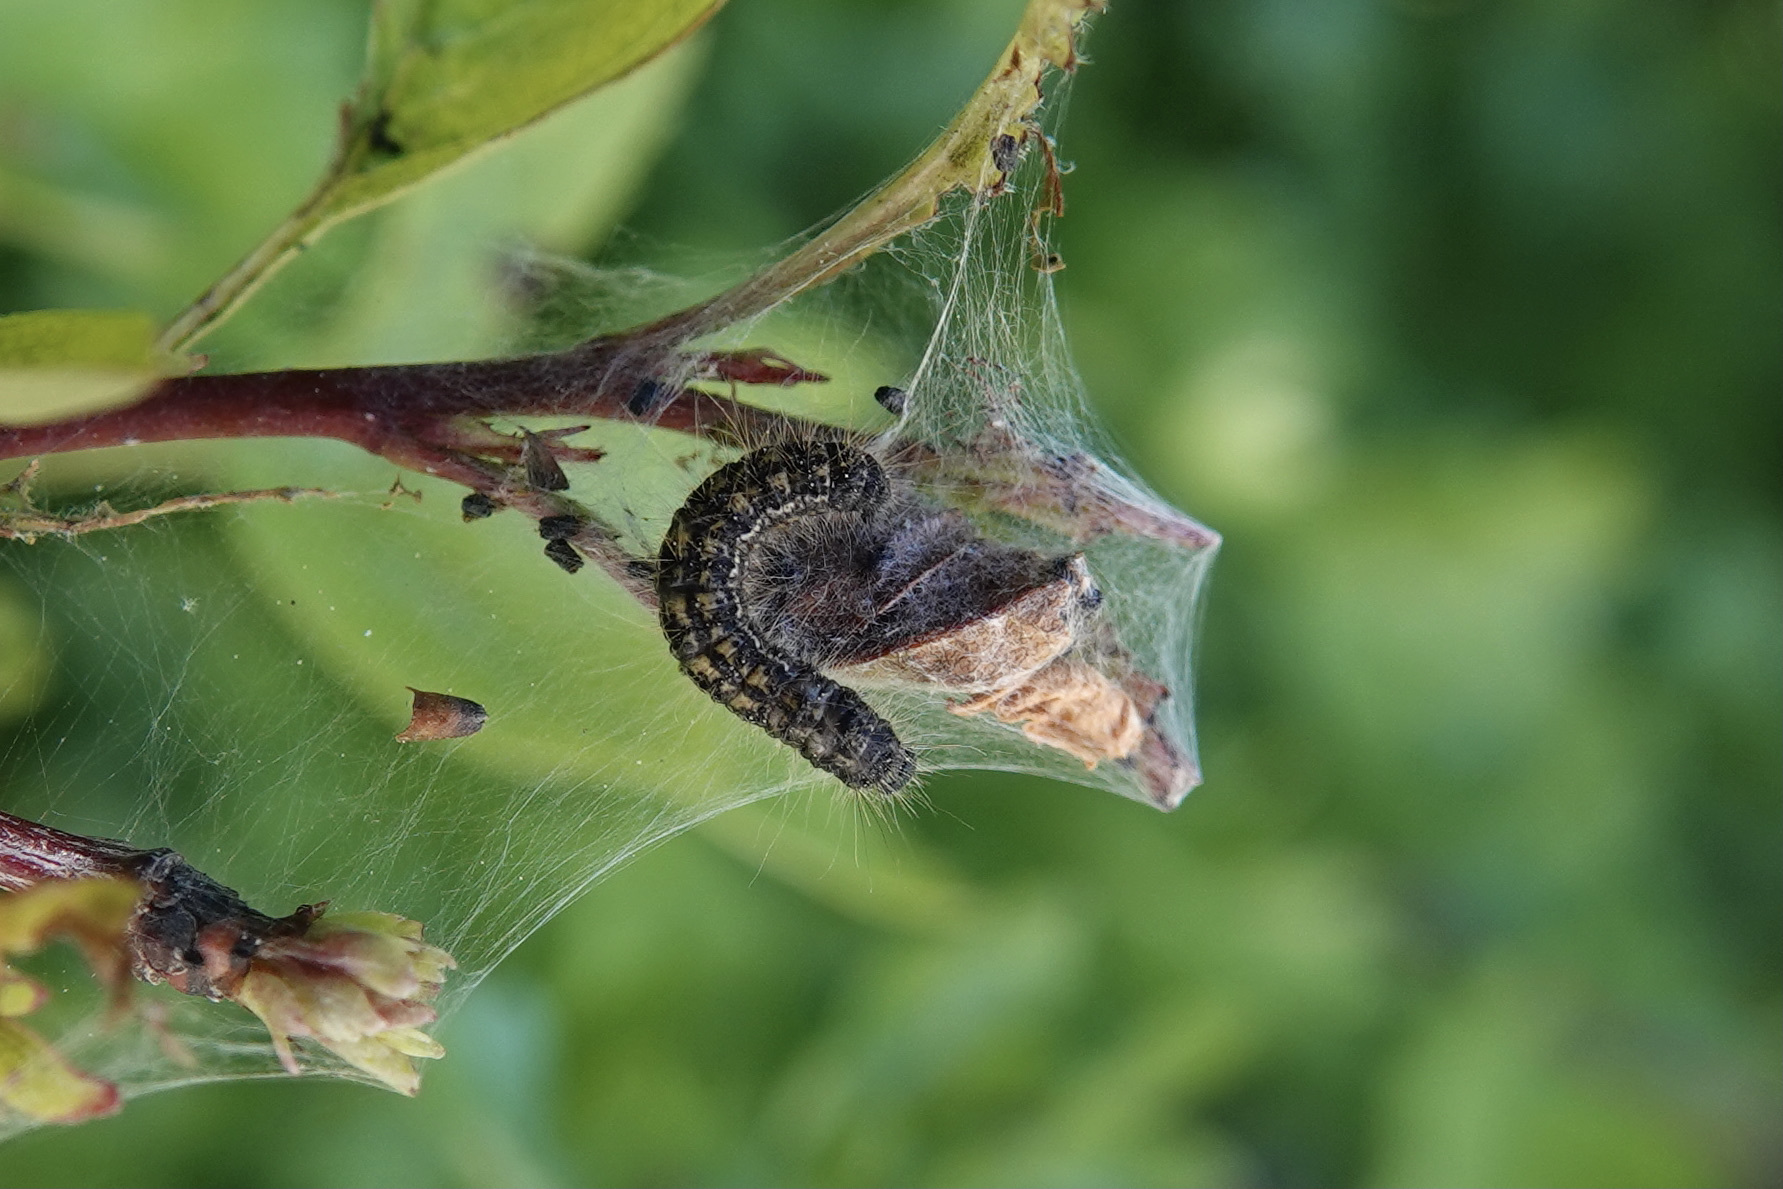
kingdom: Animalia
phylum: Arthropoda
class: Insecta
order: Lepidoptera
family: Lasiocampidae
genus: Malacosoma
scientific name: Malacosoma californica
